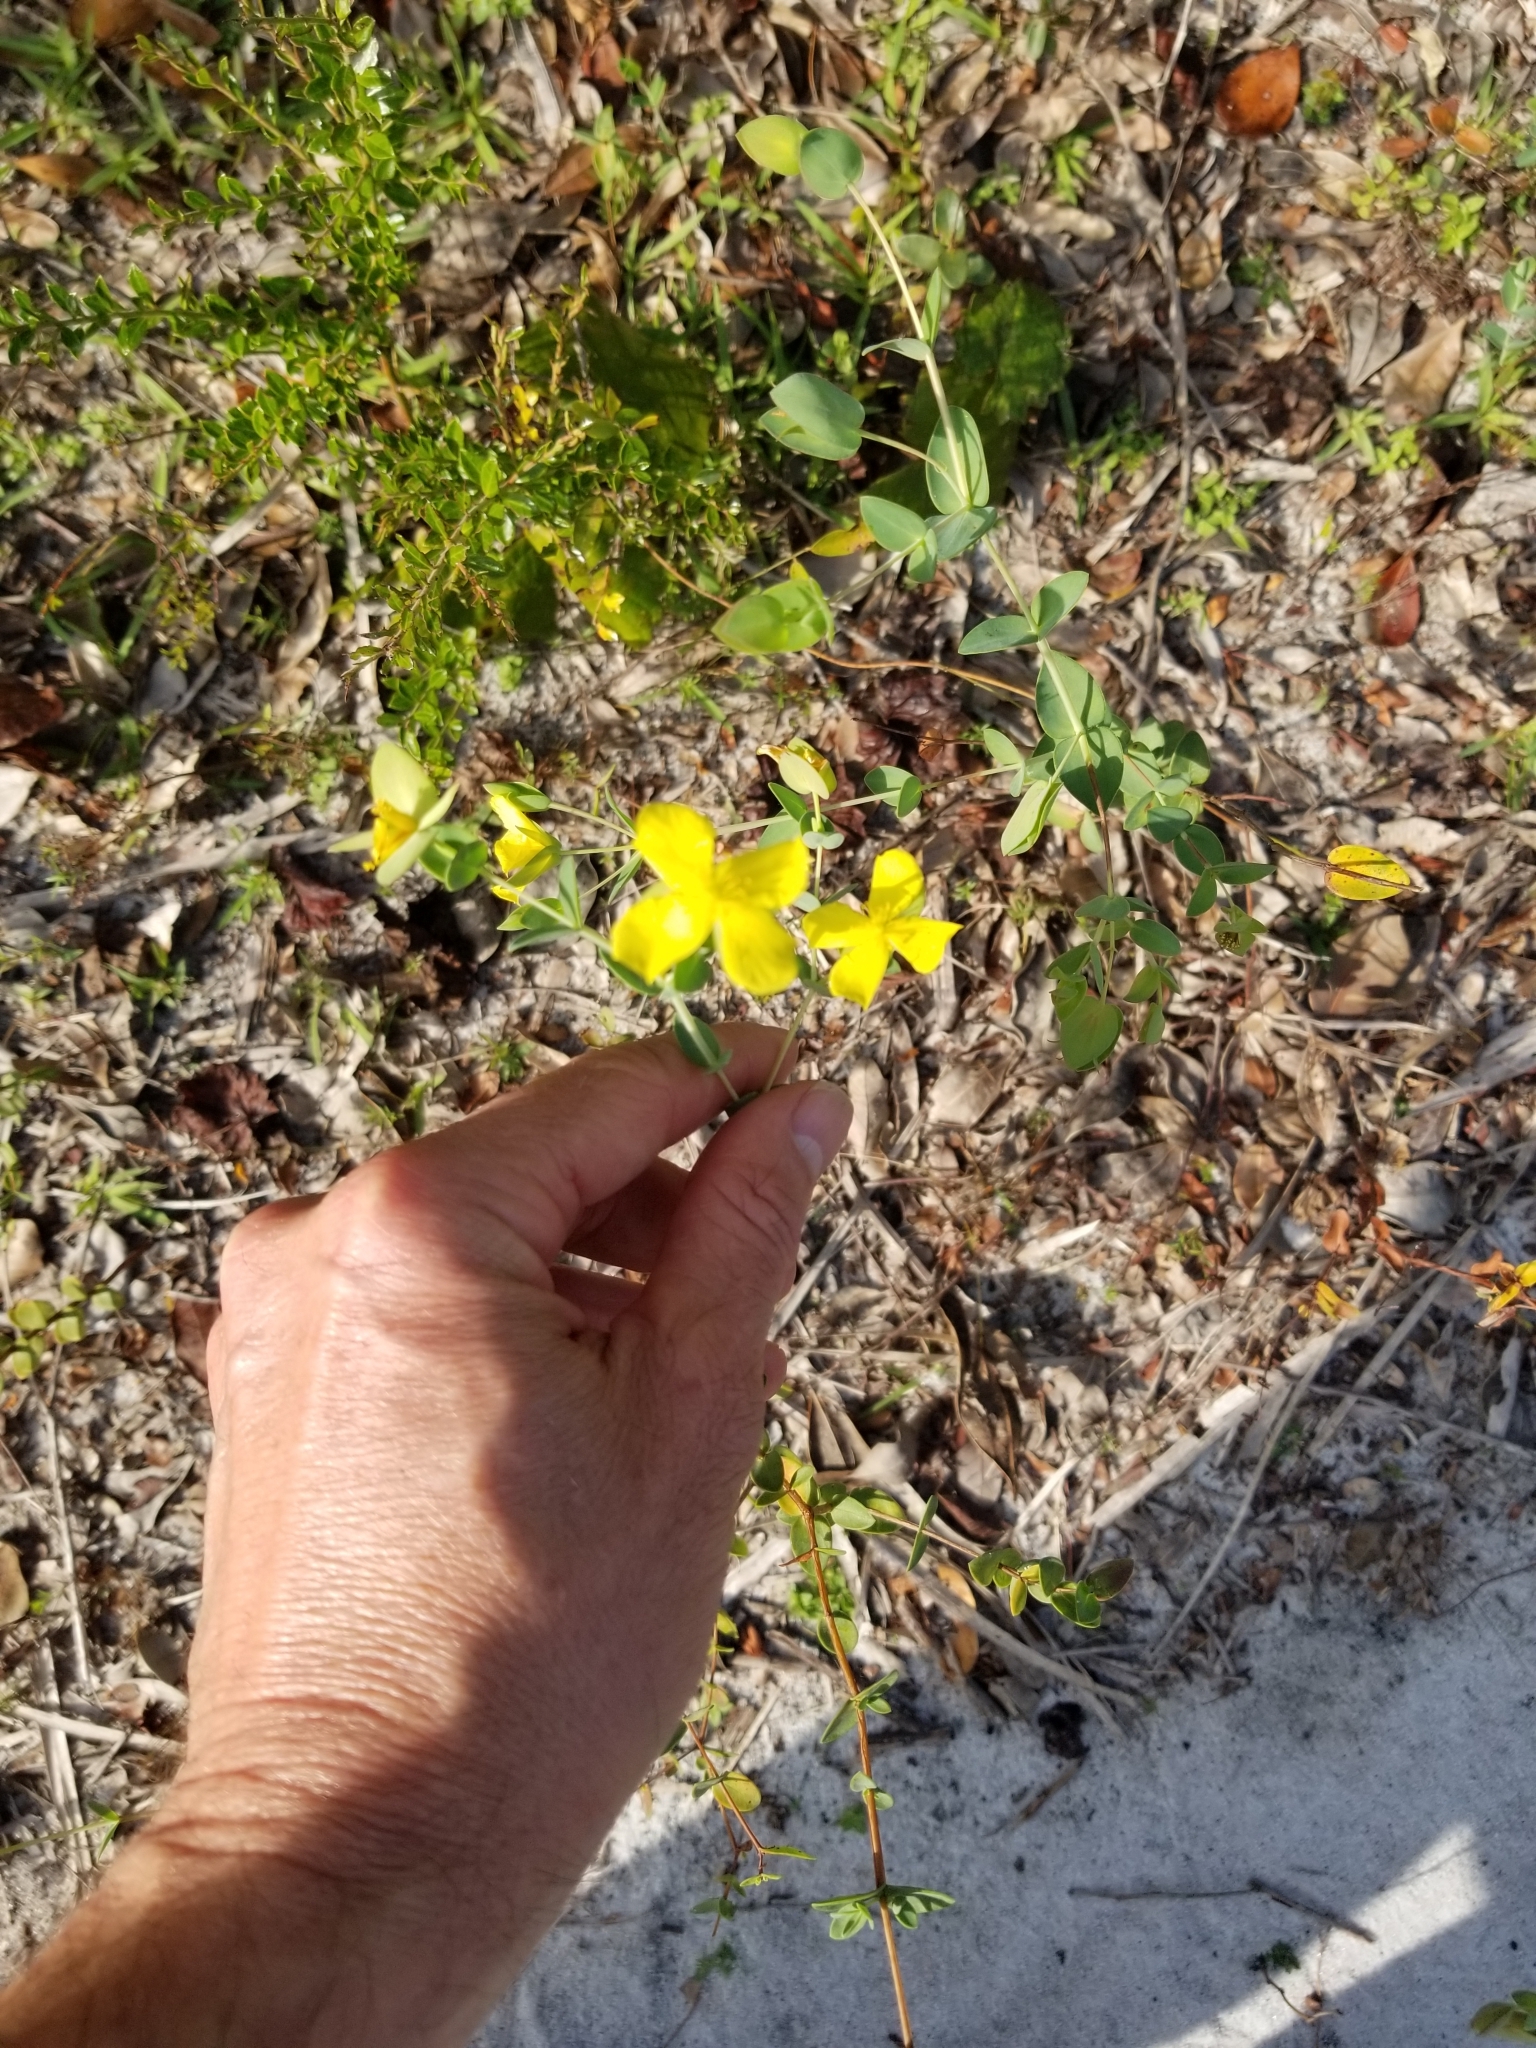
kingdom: Plantae
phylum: Tracheophyta
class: Magnoliopsida
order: Malpighiales
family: Hypericaceae
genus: Hypericum
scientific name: Hypericum tetrapetalum
